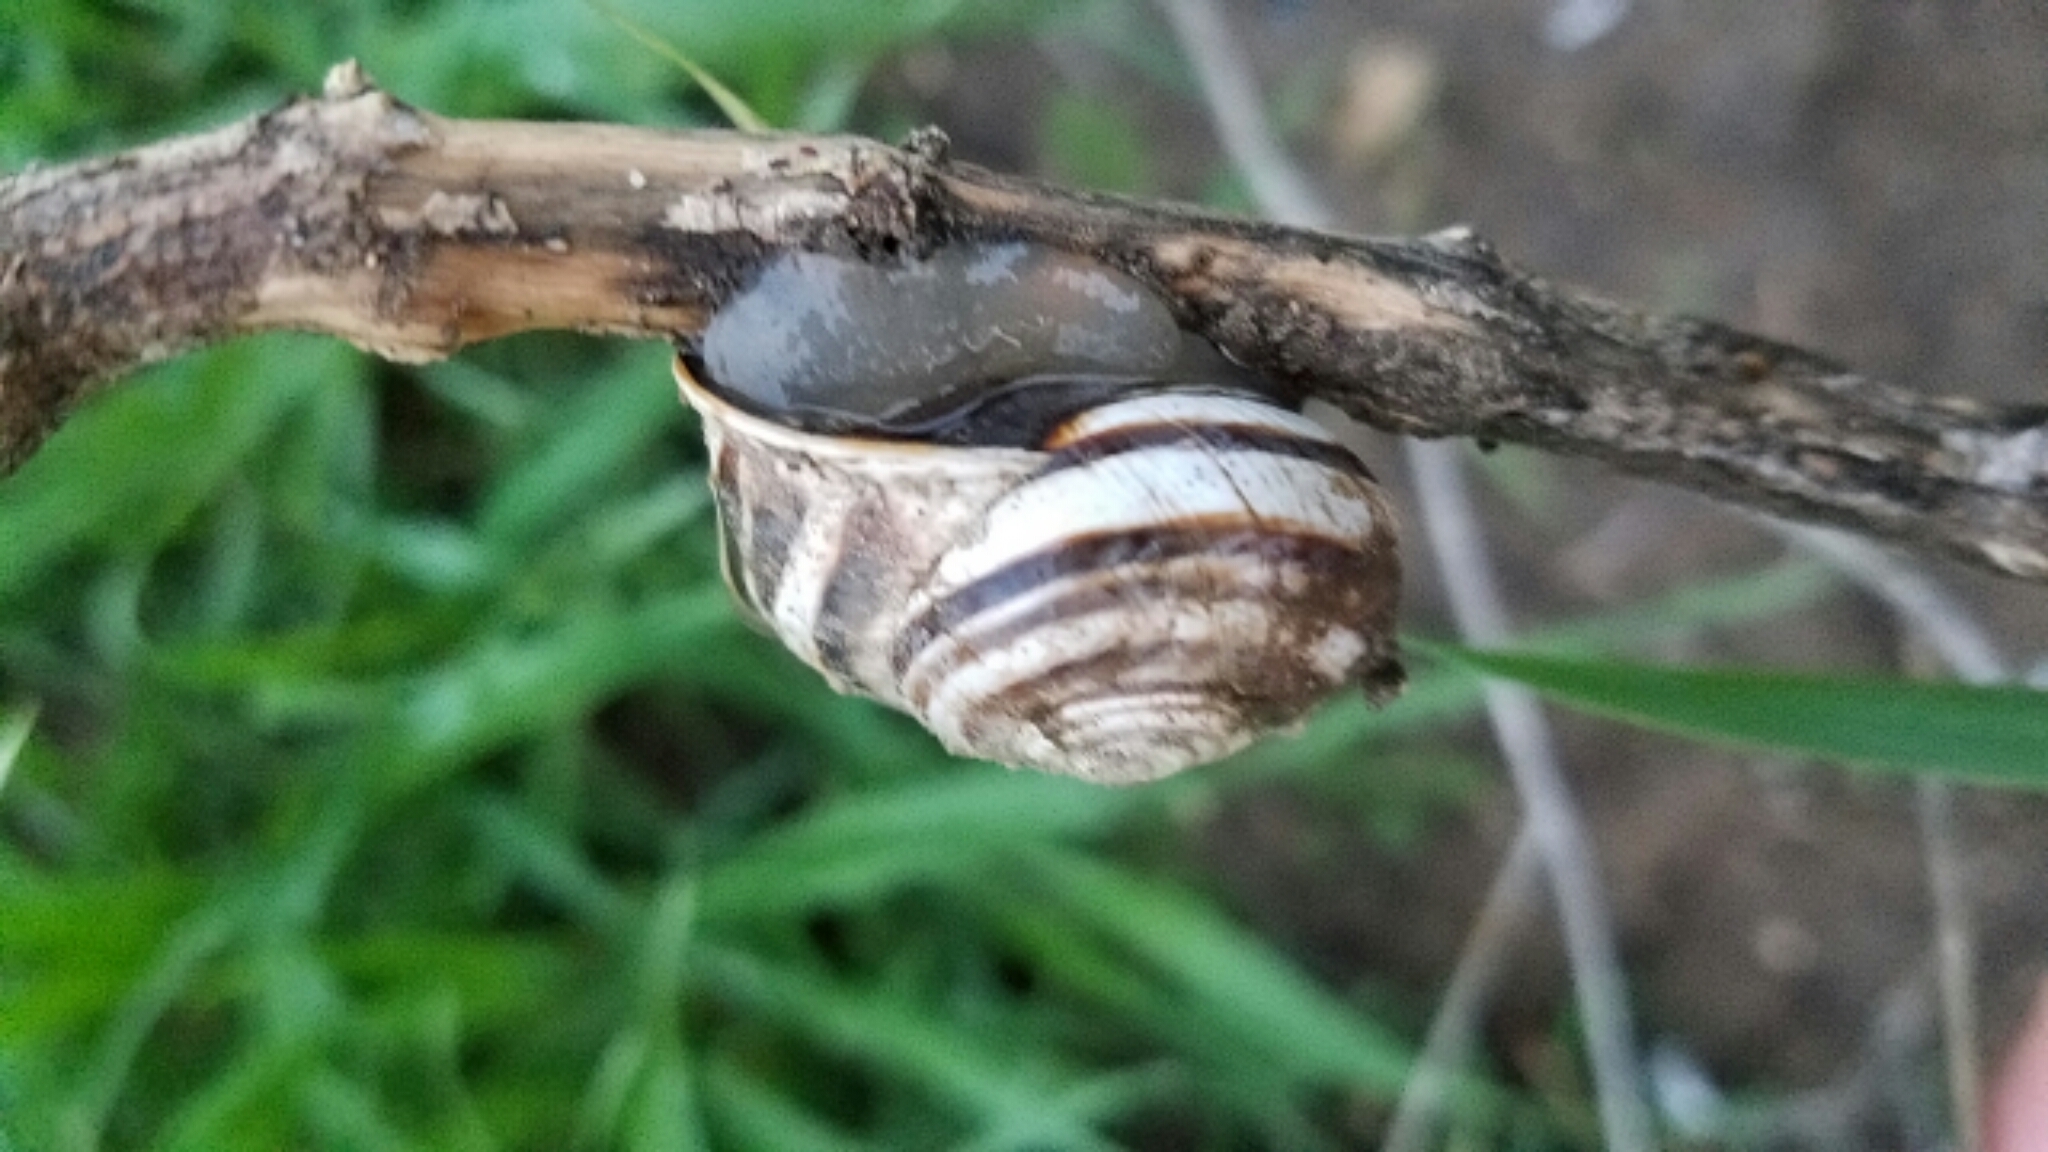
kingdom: Animalia
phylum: Mollusca
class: Gastropoda
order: Stylommatophora
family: Helicidae
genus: Otala
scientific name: Otala lactea
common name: Milk snail
